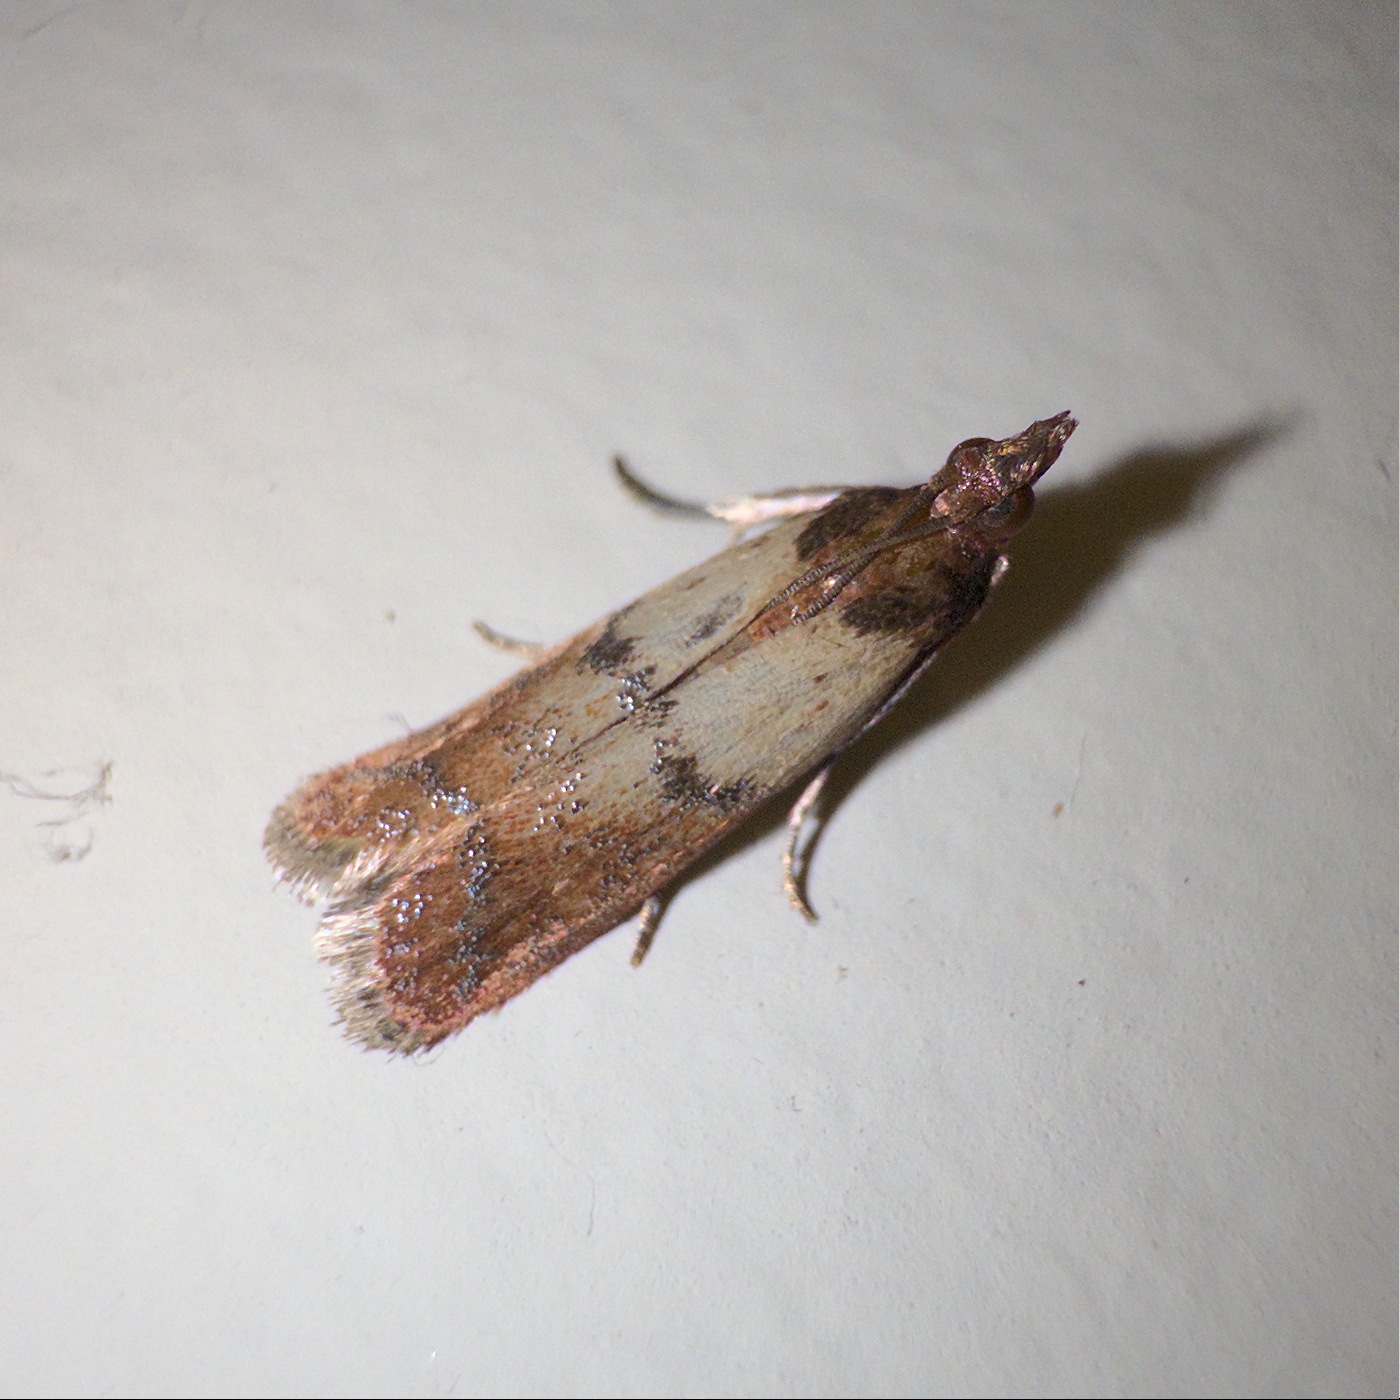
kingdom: Animalia
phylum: Arthropoda
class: Insecta
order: Lepidoptera
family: Pyralidae
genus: Plodia
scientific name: Plodia interpunctella
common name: Indian meal moth
